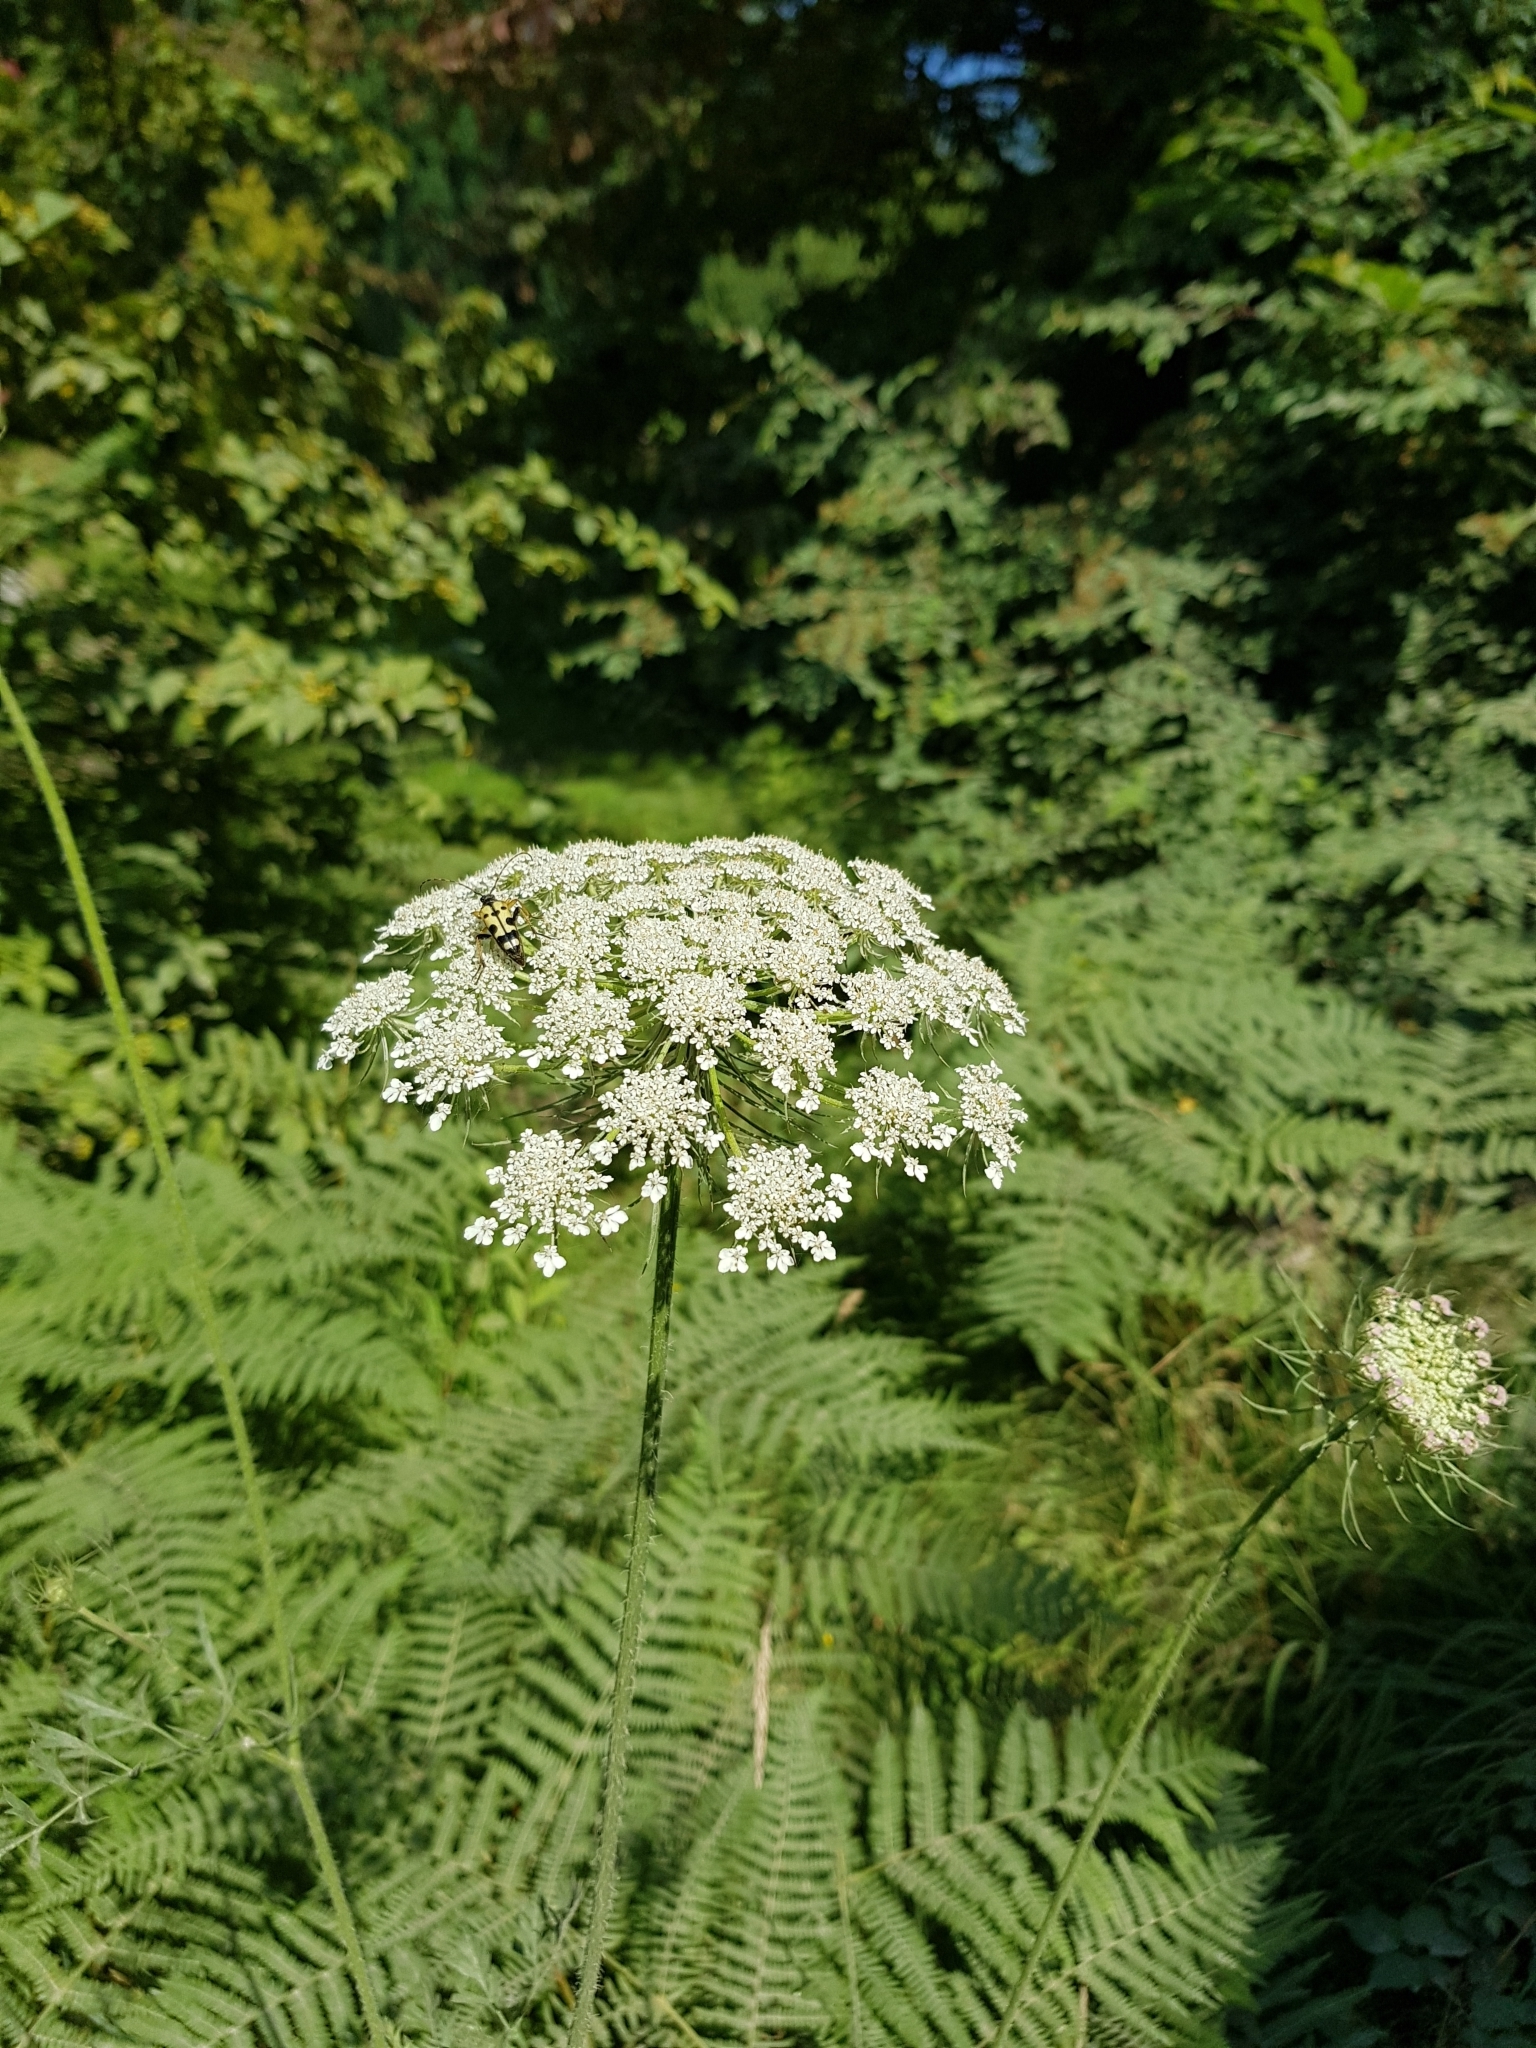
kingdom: Plantae
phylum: Tracheophyta
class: Magnoliopsida
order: Apiales
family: Apiaceae
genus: Daucus
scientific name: Daucus carota
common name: Wild carrot
